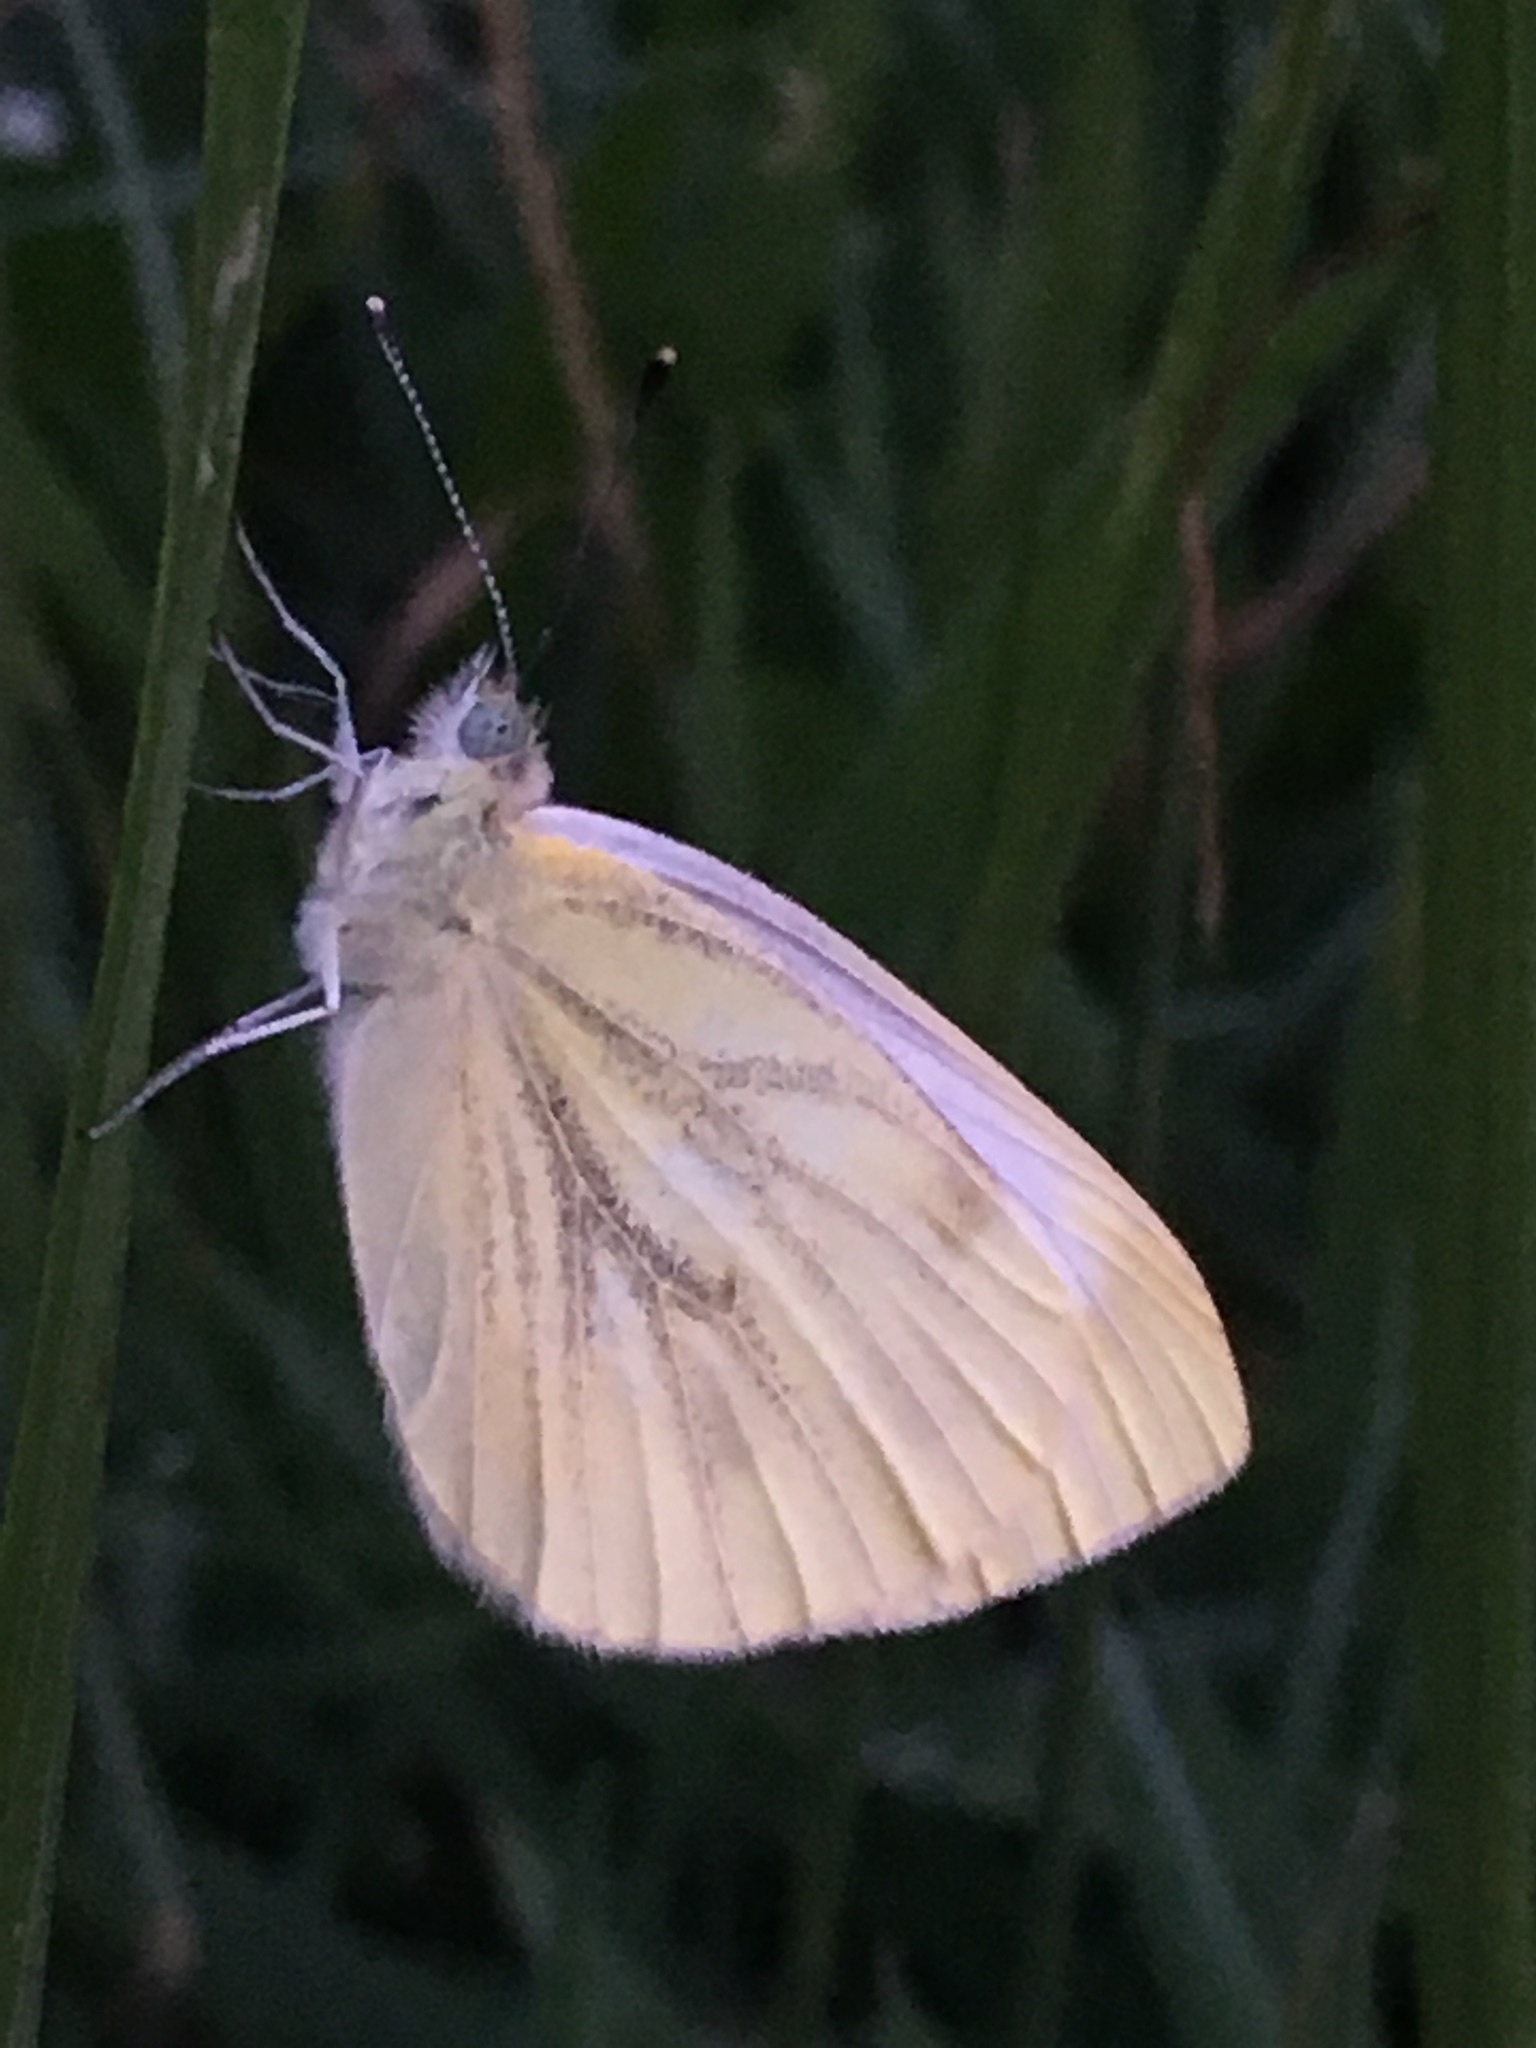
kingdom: Animalia
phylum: Arthropoda
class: Insecta
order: Lepidoptera
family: Pieridae
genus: Pieris
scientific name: Pieris napi
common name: Green-veined white
